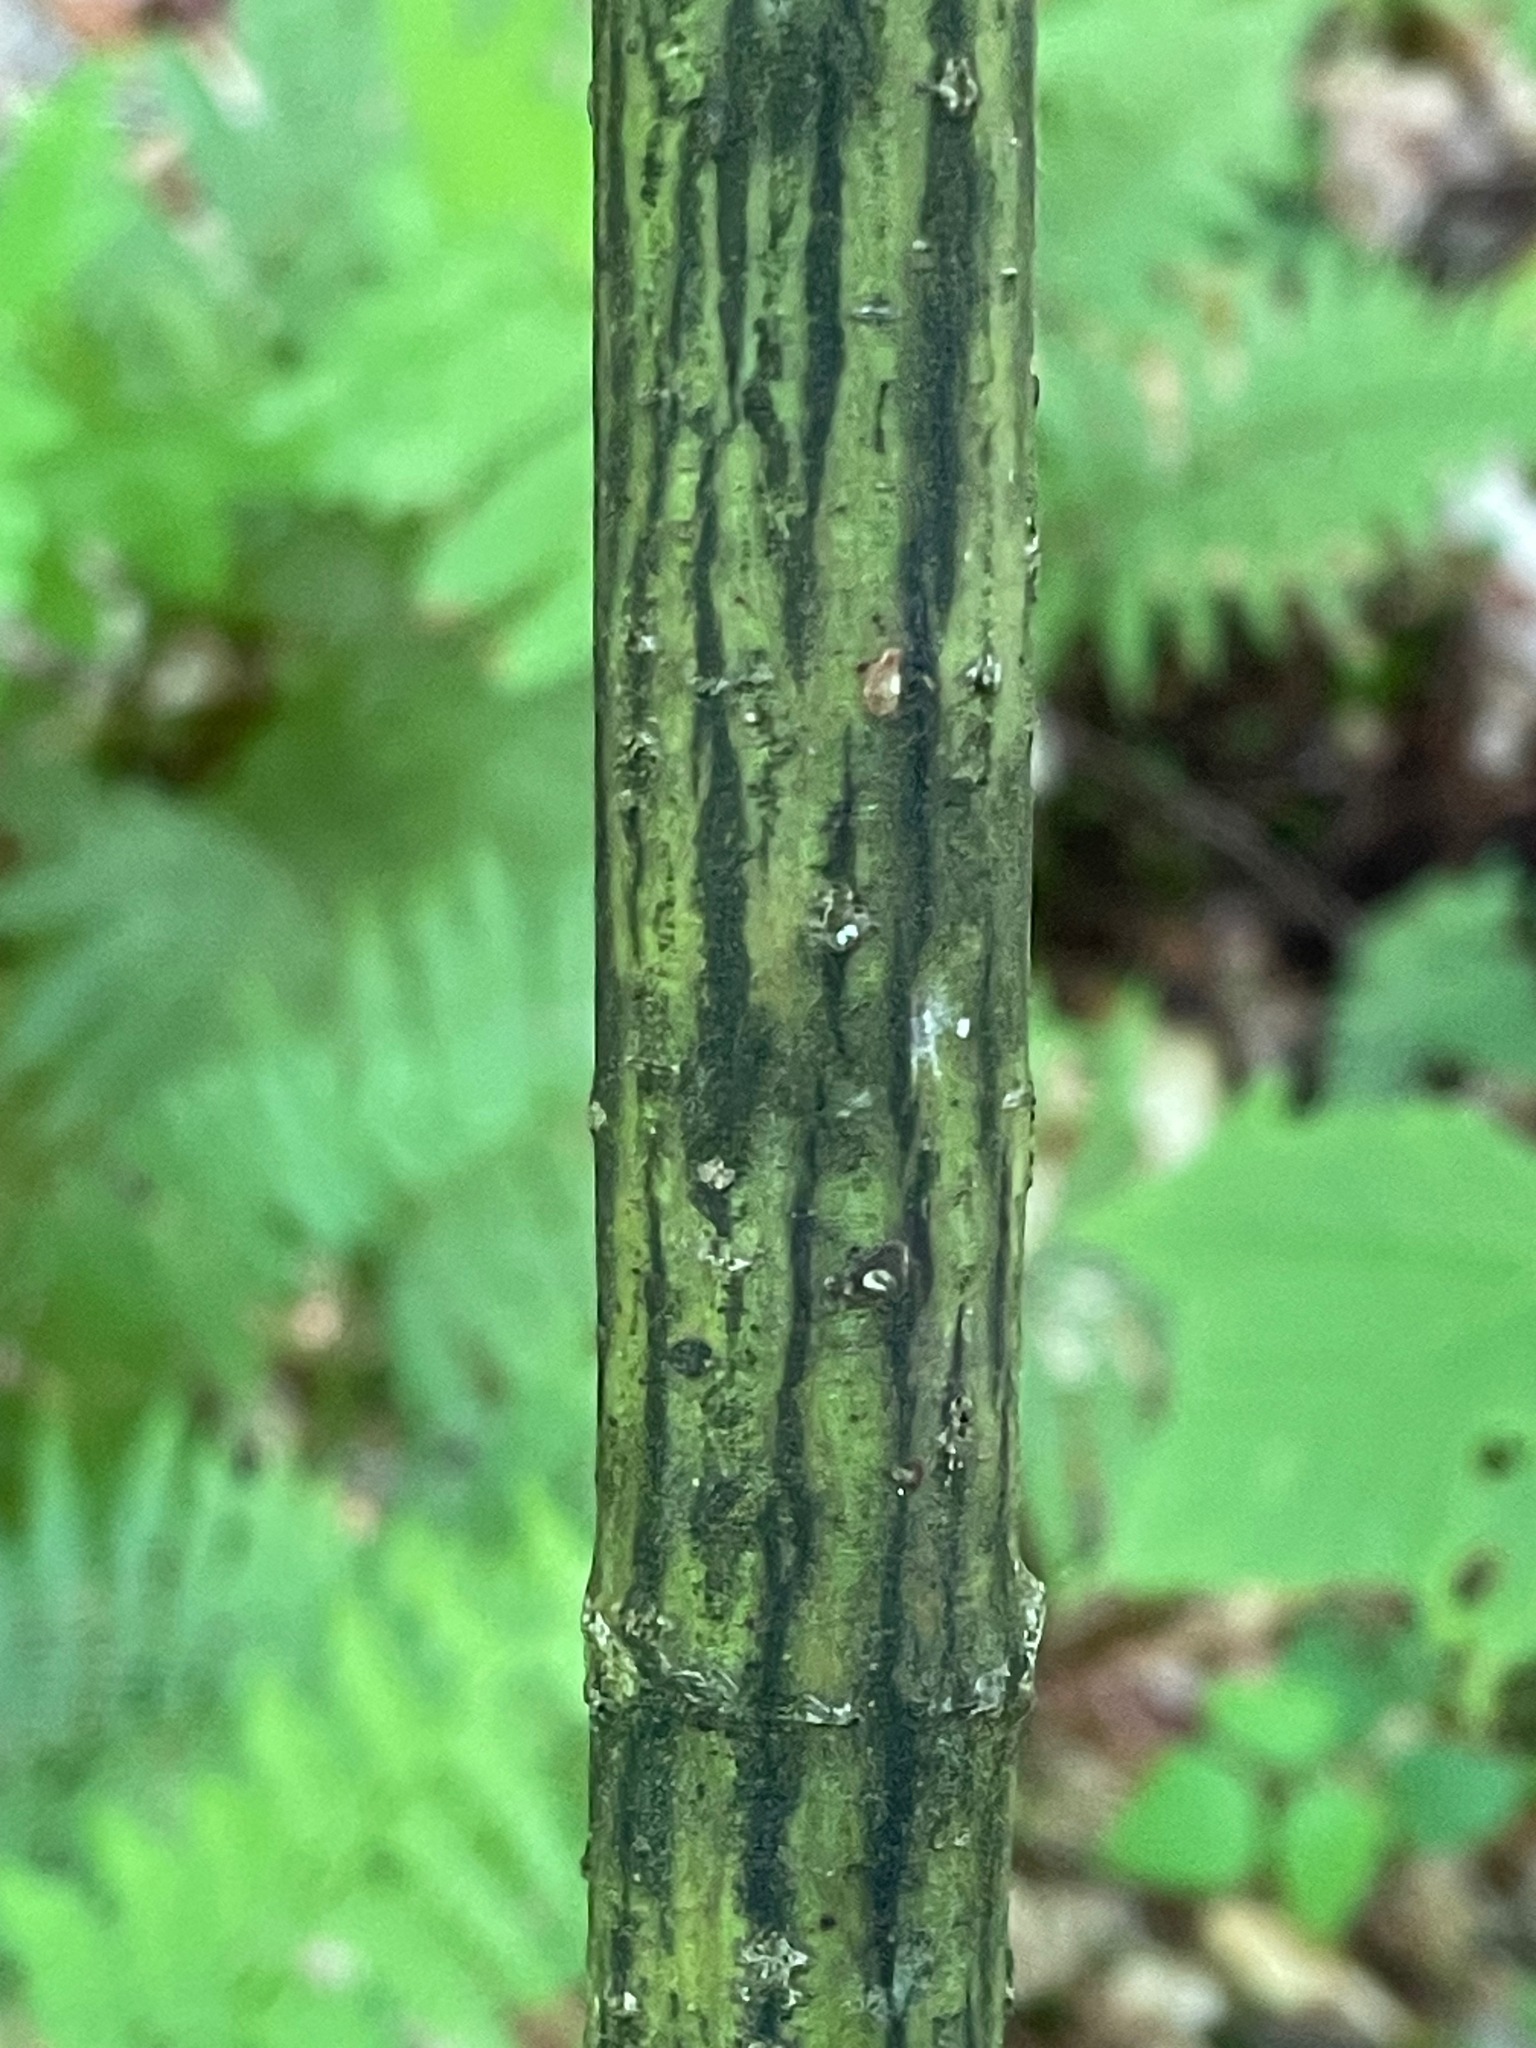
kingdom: Plantae
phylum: Tracheophyta
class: Magnoliopsida
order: Sapindales
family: Sapindaceae
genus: Acer
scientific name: Acer pensylvanicum
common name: Moosewood
